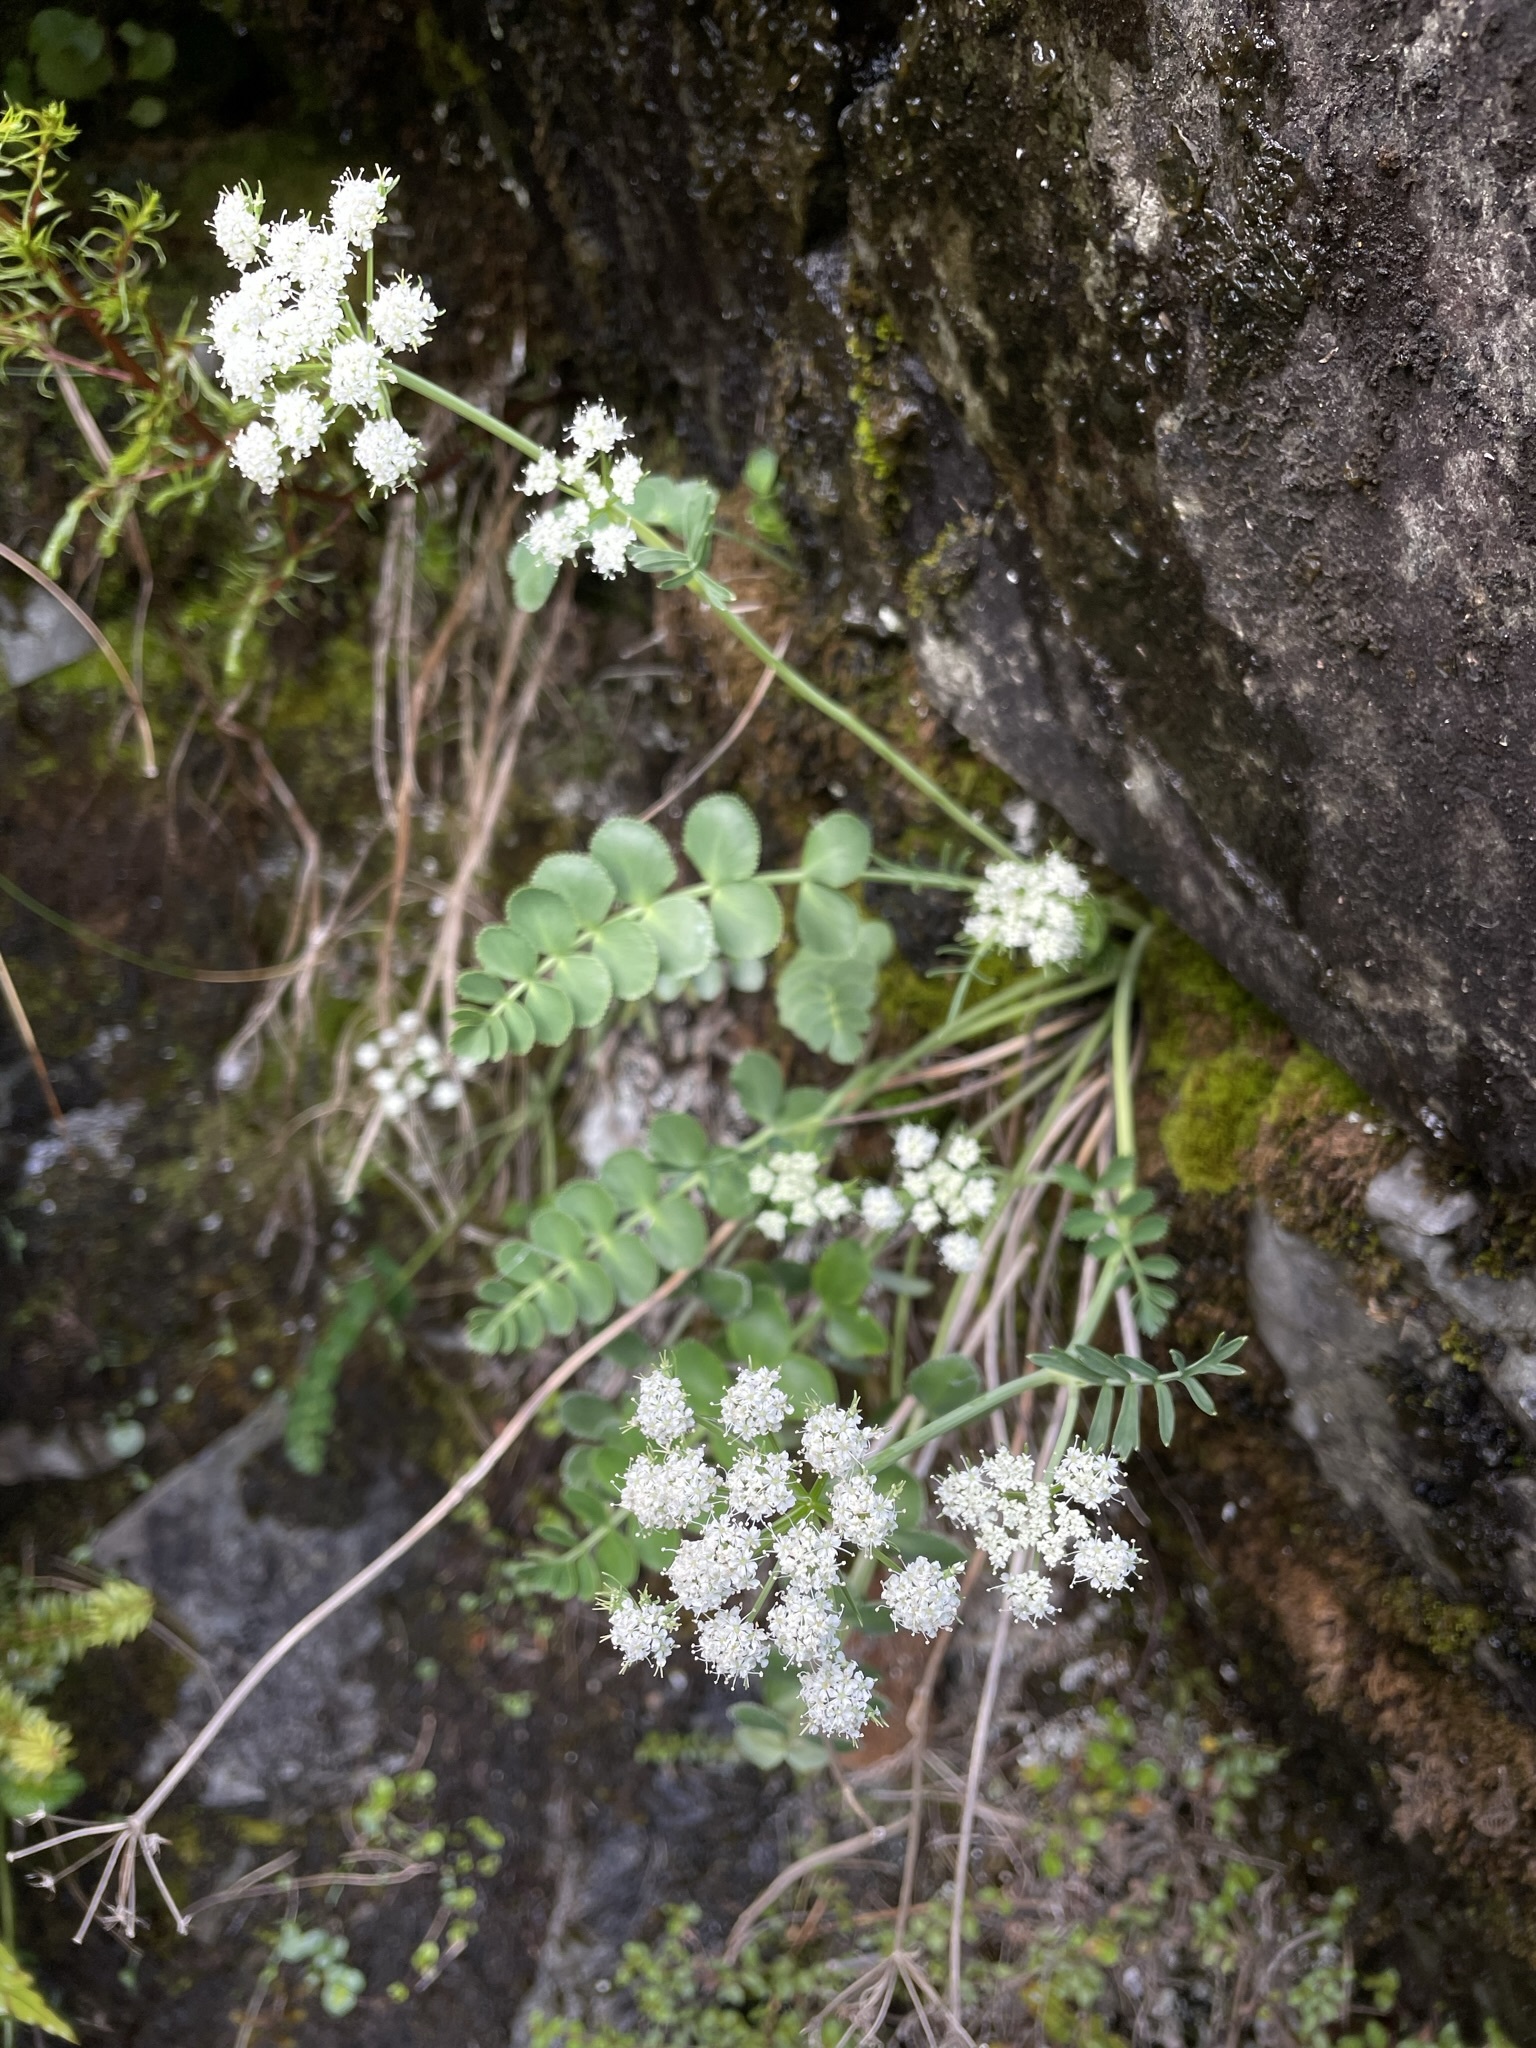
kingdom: Plantae
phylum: Tracheophyta
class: Magnoliopsida
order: Apiales
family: Apiaceae
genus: Gingidia
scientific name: Gingidia amphistoma
